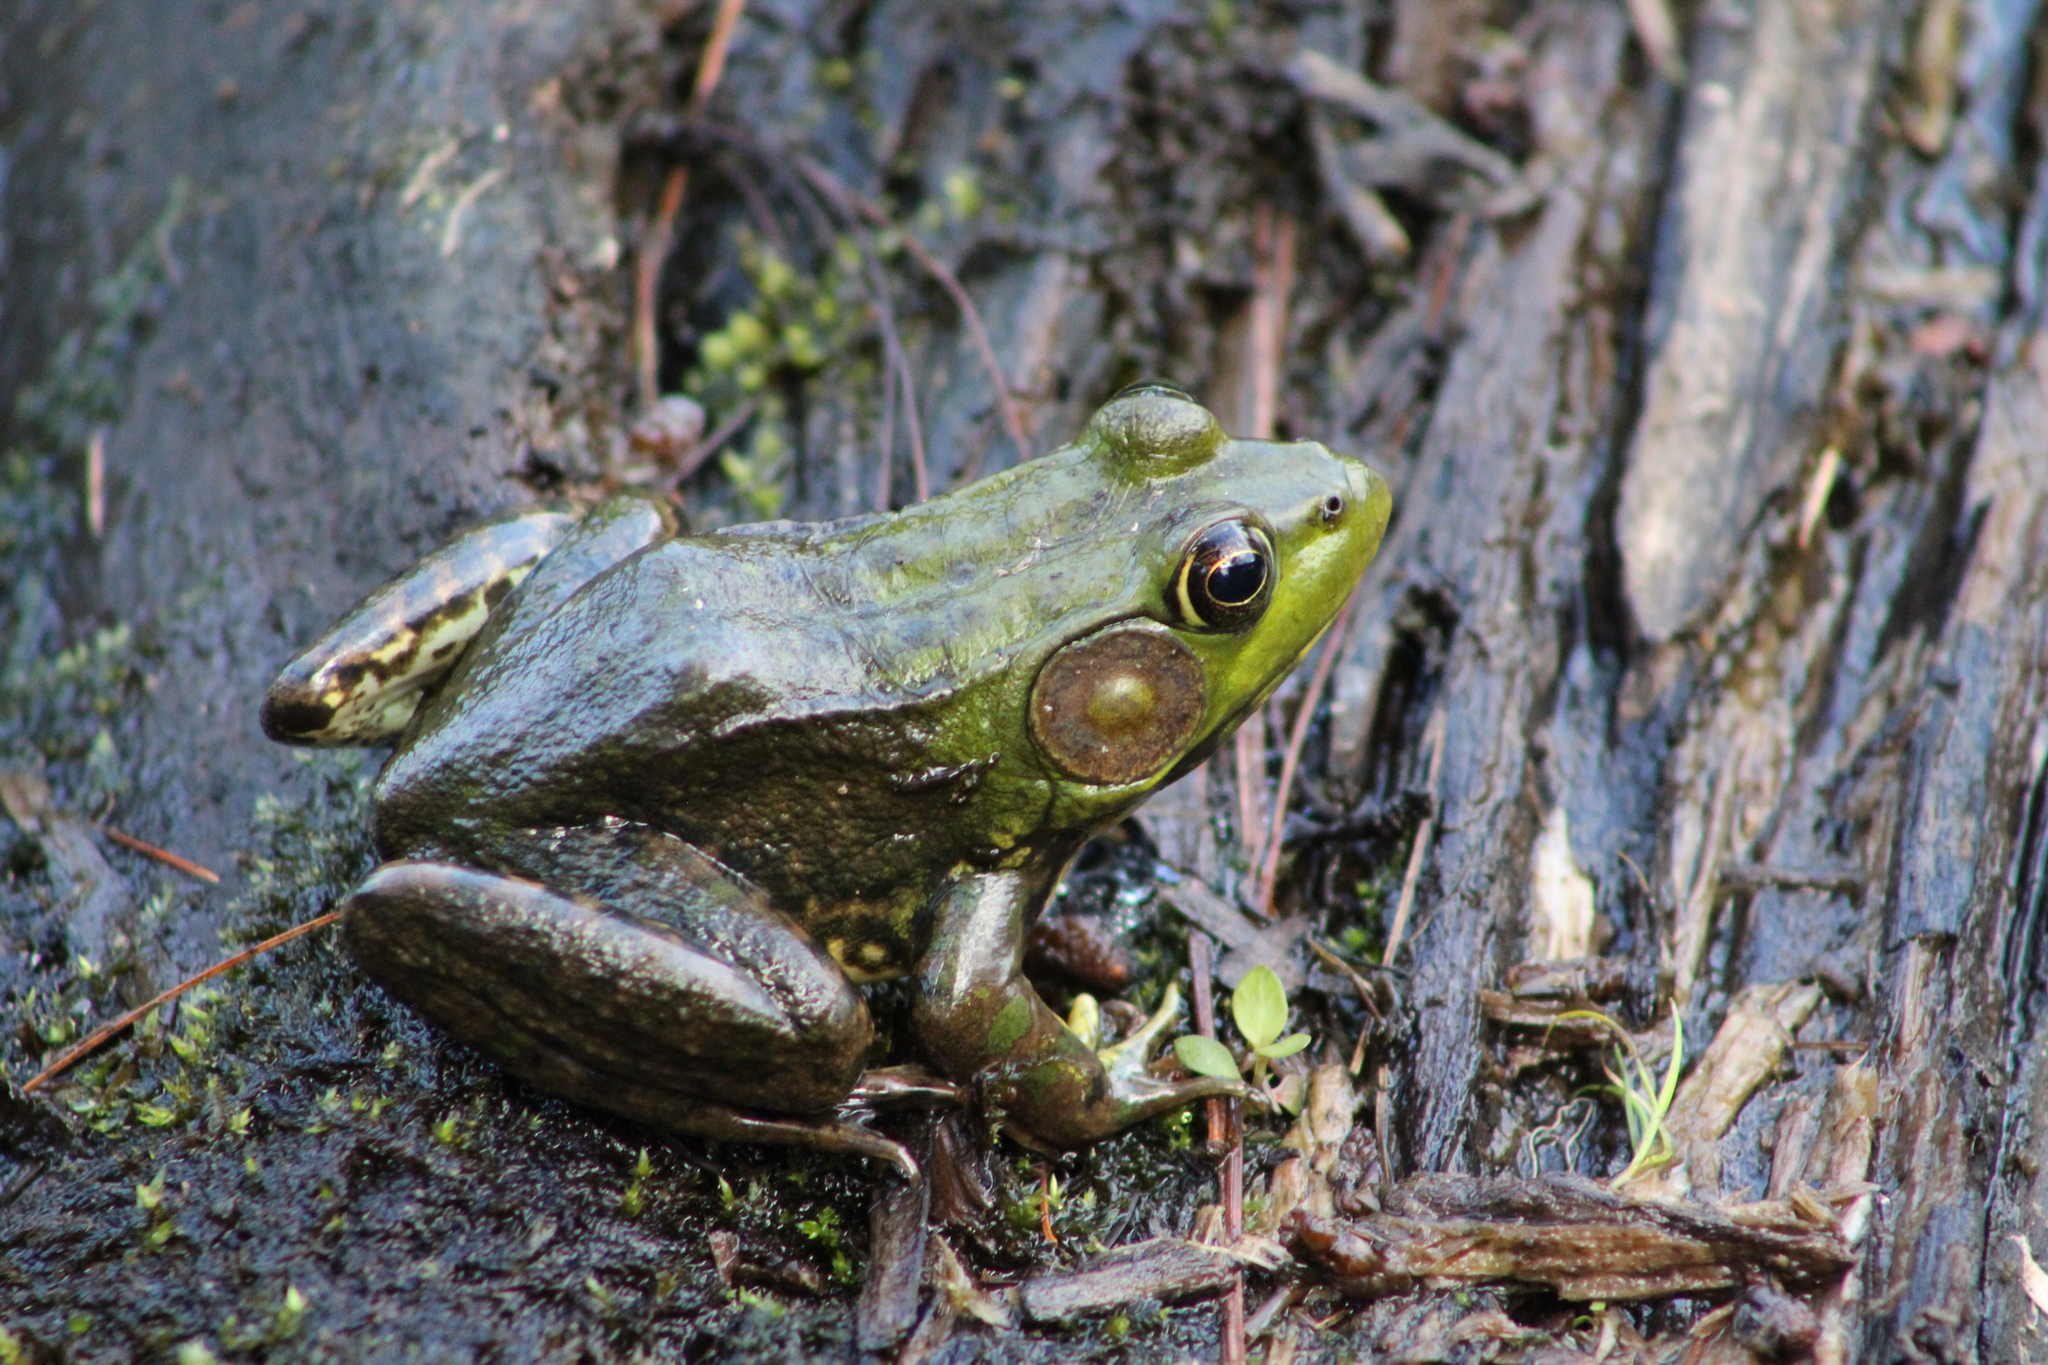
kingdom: Animalia
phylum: Chordata
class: Amphibia
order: Anura
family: Ranidae
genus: Lithobates
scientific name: Lithobates clamitans
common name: Green frog
